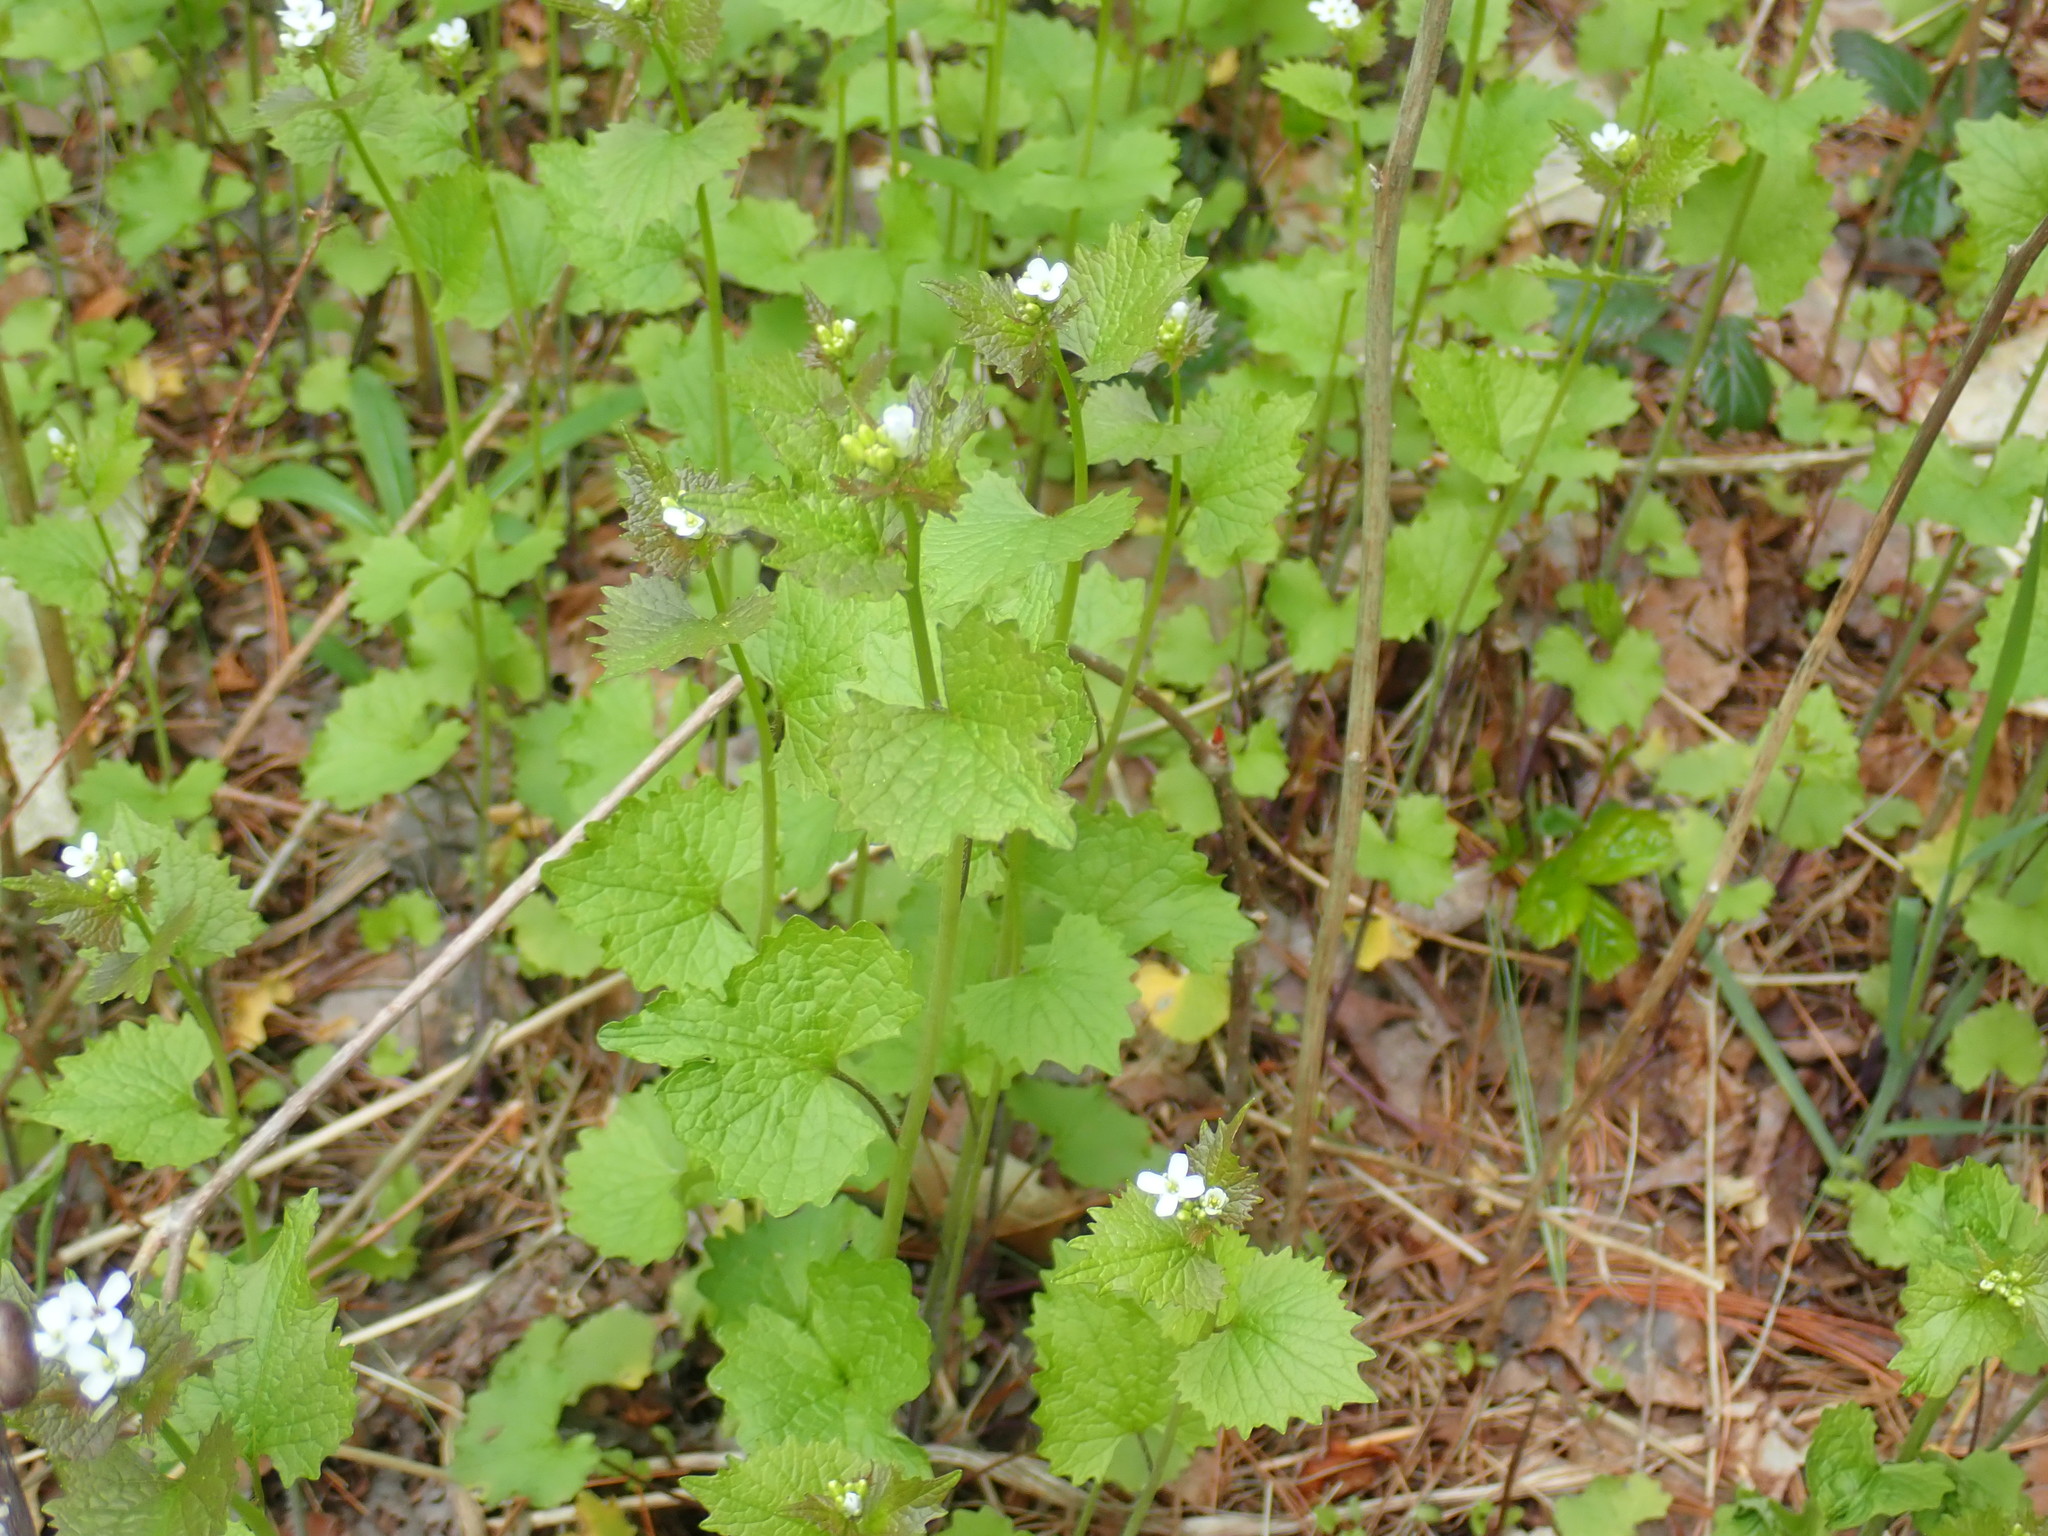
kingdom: Plantae
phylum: Tracheophyta
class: Magnoliopsida
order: Brassicales
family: Brassicaceae
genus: Alliaria
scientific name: Alliaria petiolata
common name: Garlic mustard
